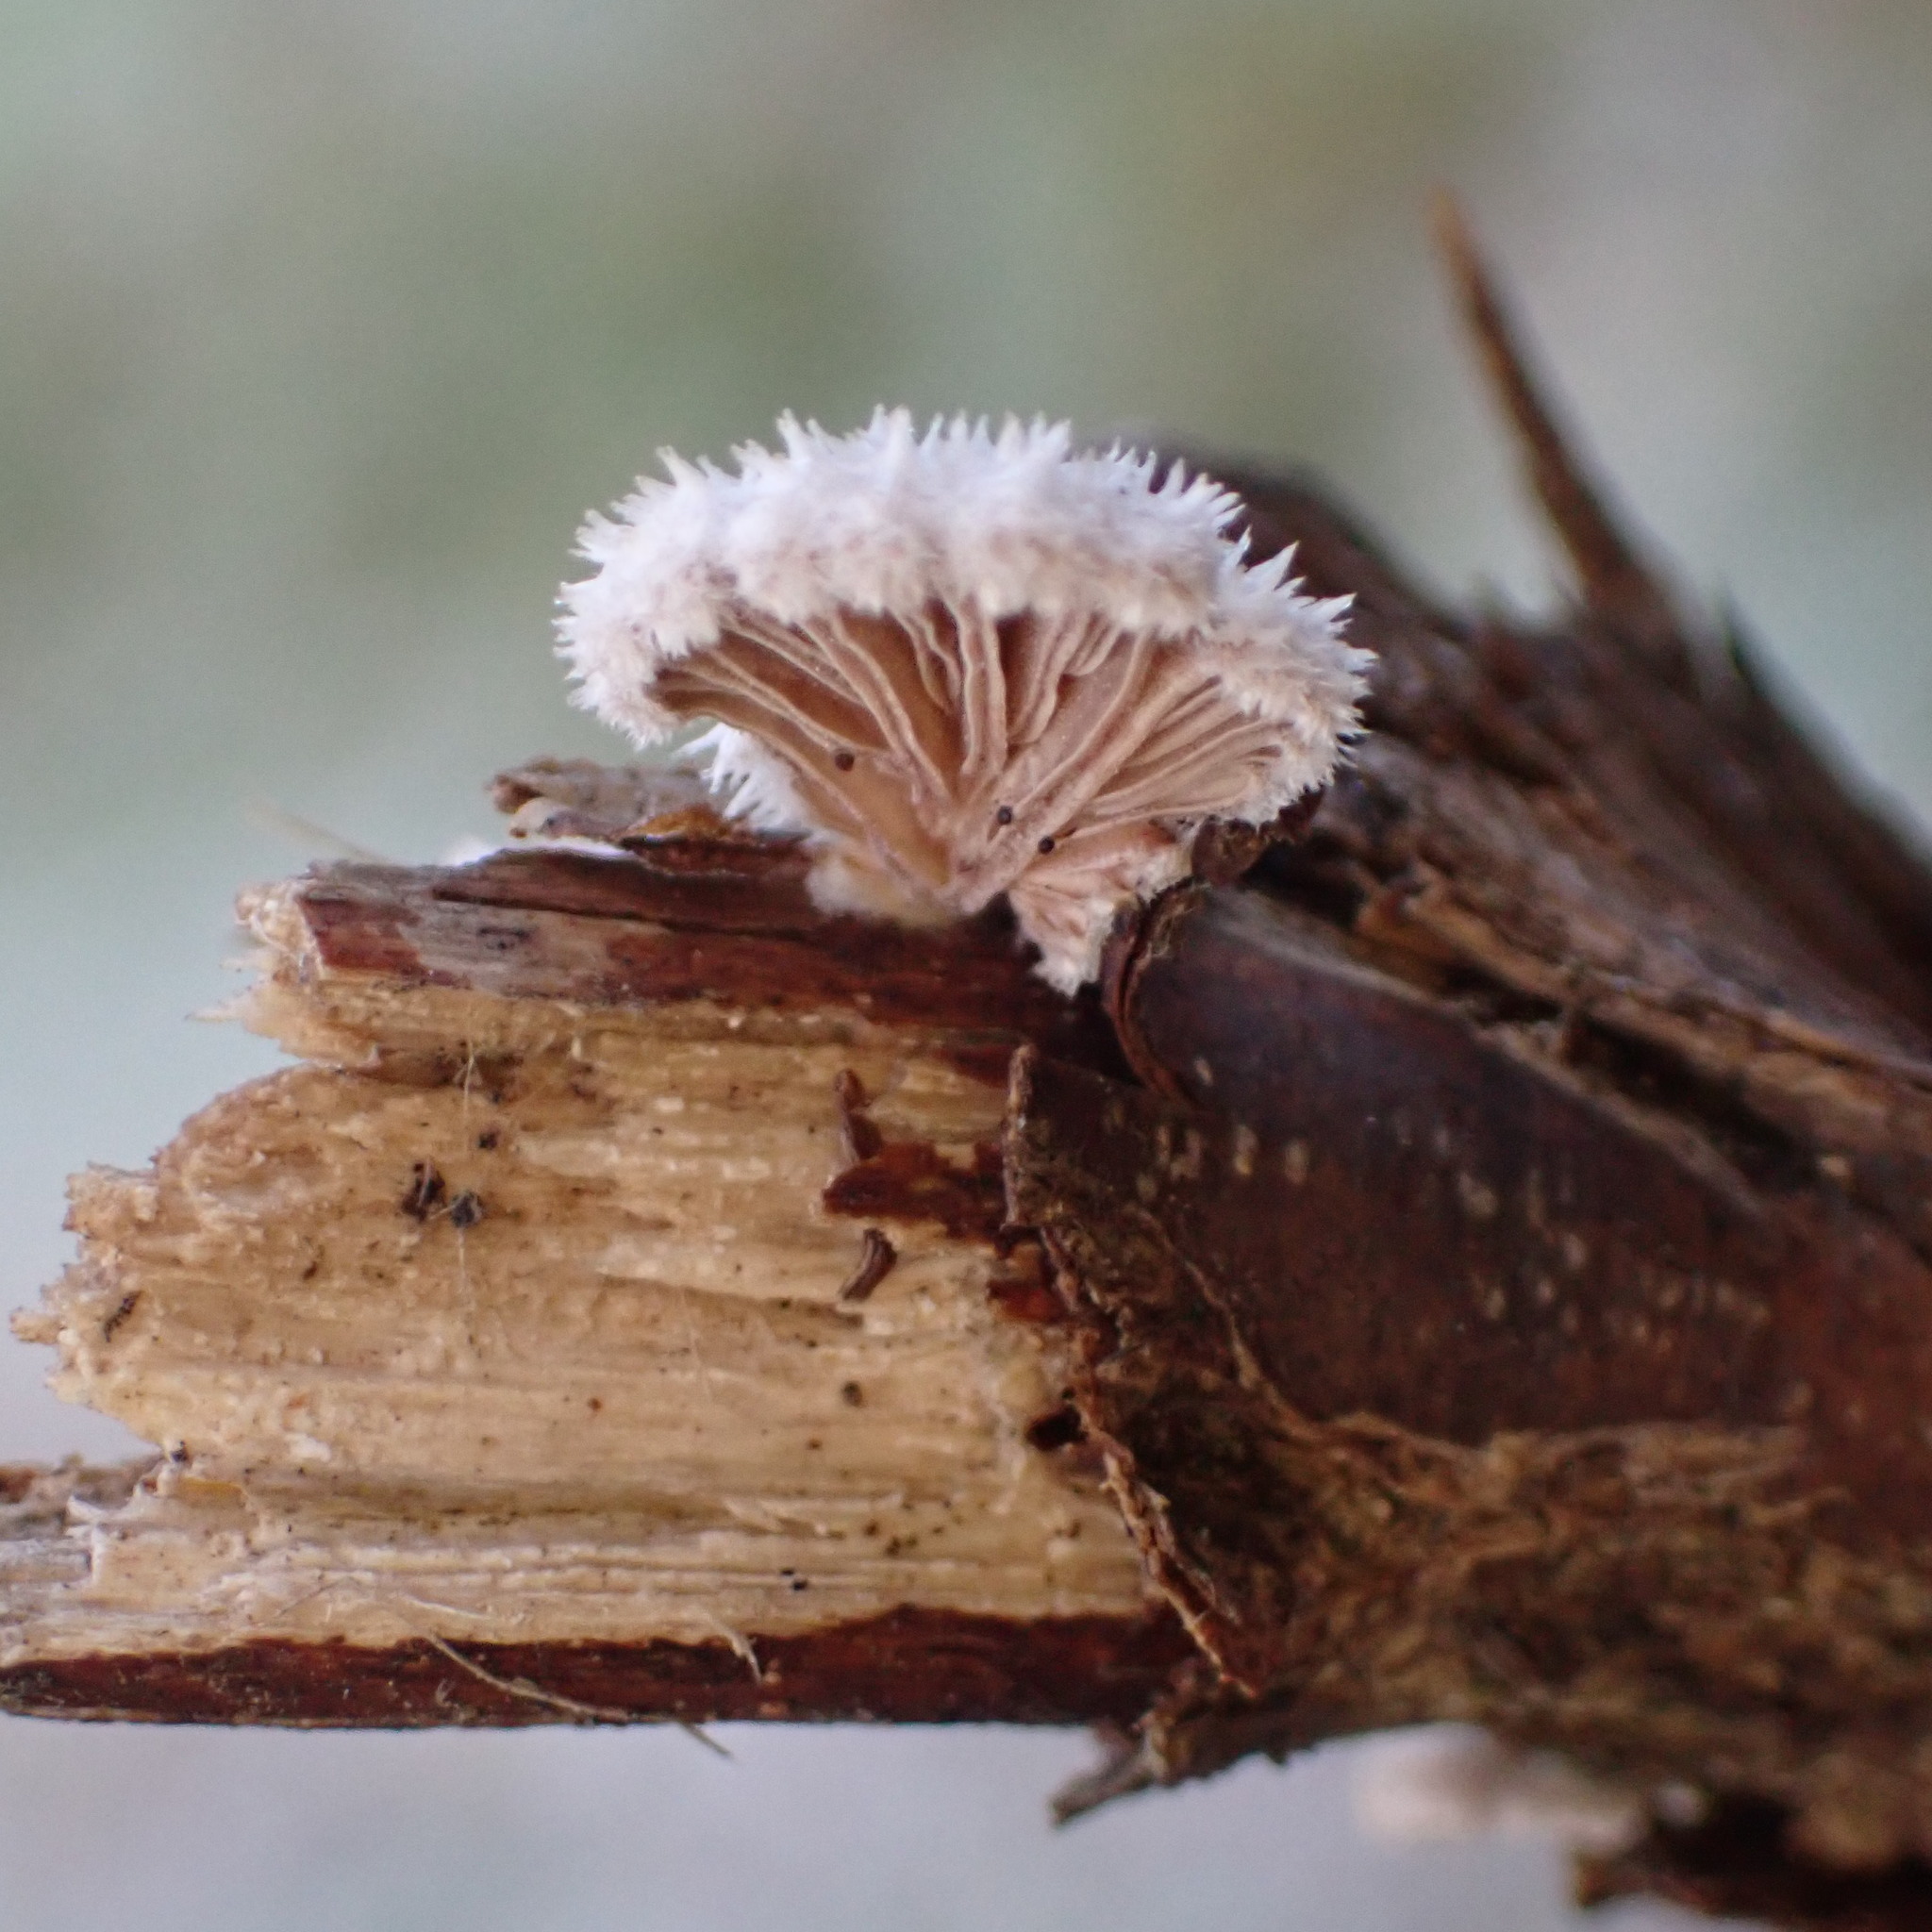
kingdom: Fungi
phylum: Basidiomycota
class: Agaricomycetes
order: Agaricales
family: Schizophyllaceae
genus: Schizophyllum
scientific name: Schizophyllum commune
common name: Common porecrust
